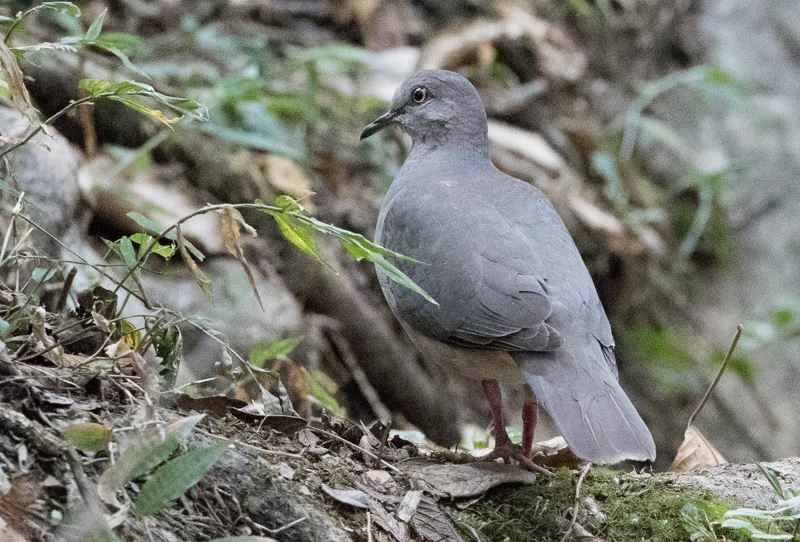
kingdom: Animalia
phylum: Chordata
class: Aves
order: Columbiformes
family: Columbidae
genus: Leptotila
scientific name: Leptotila verreauxi
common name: White-tipped dove
